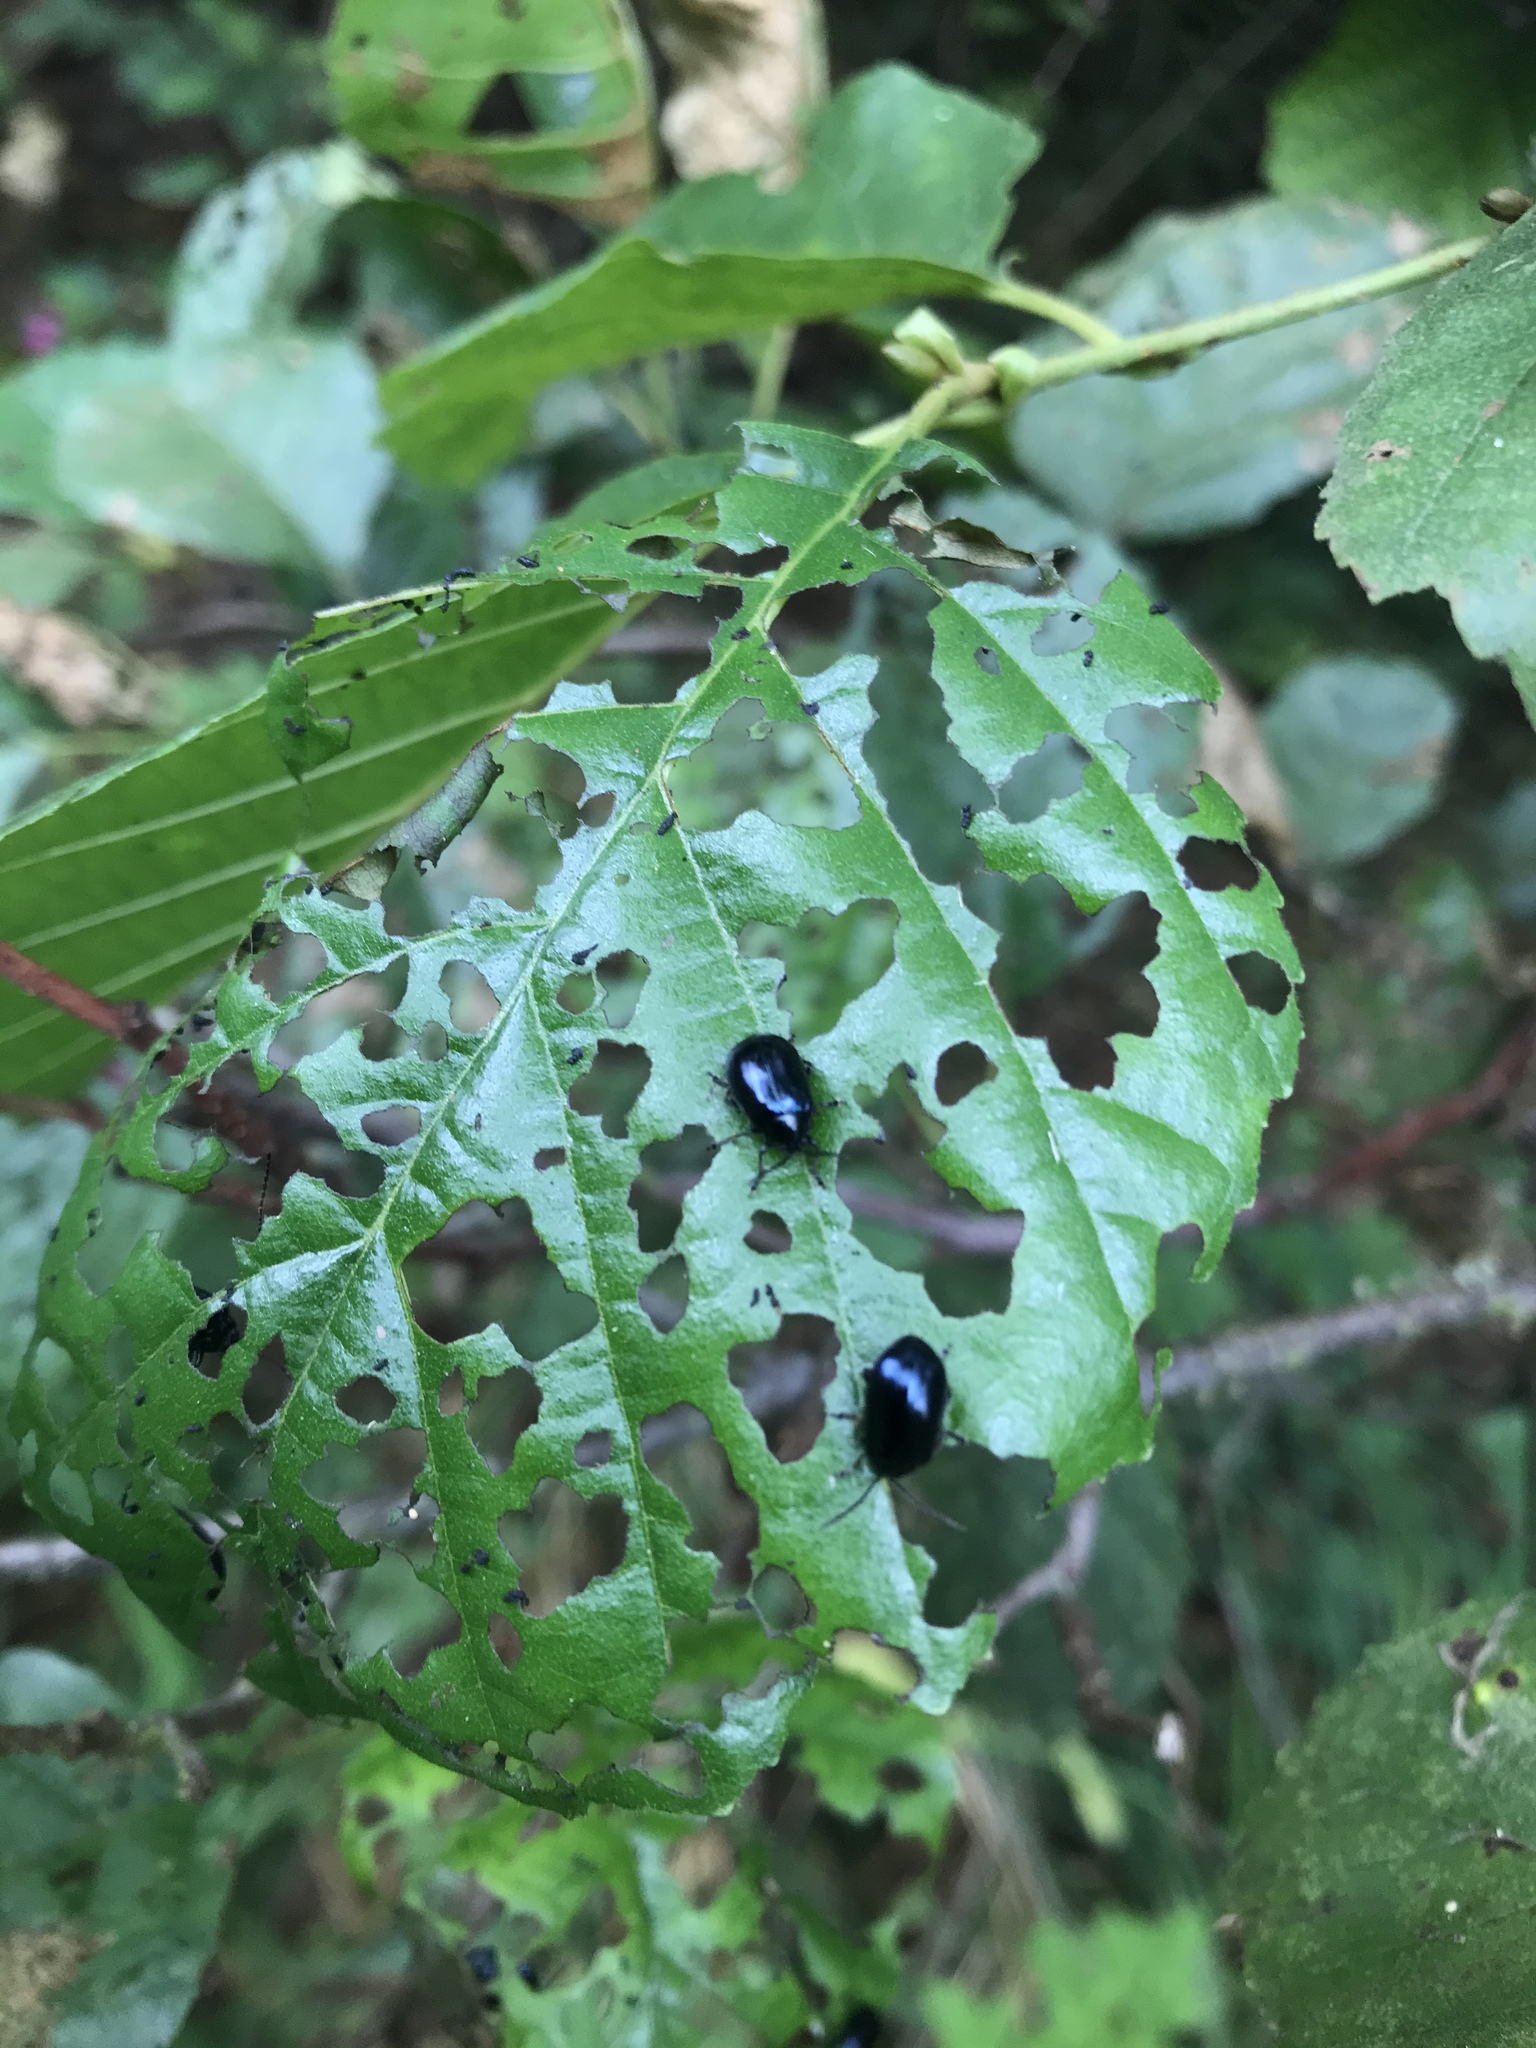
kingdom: Animalia
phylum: Arthropoda
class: Insecta
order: Coleoptera
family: Chrysomelidae
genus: Agelastica
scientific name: Agelastica alni
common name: Alder leaf beetle
